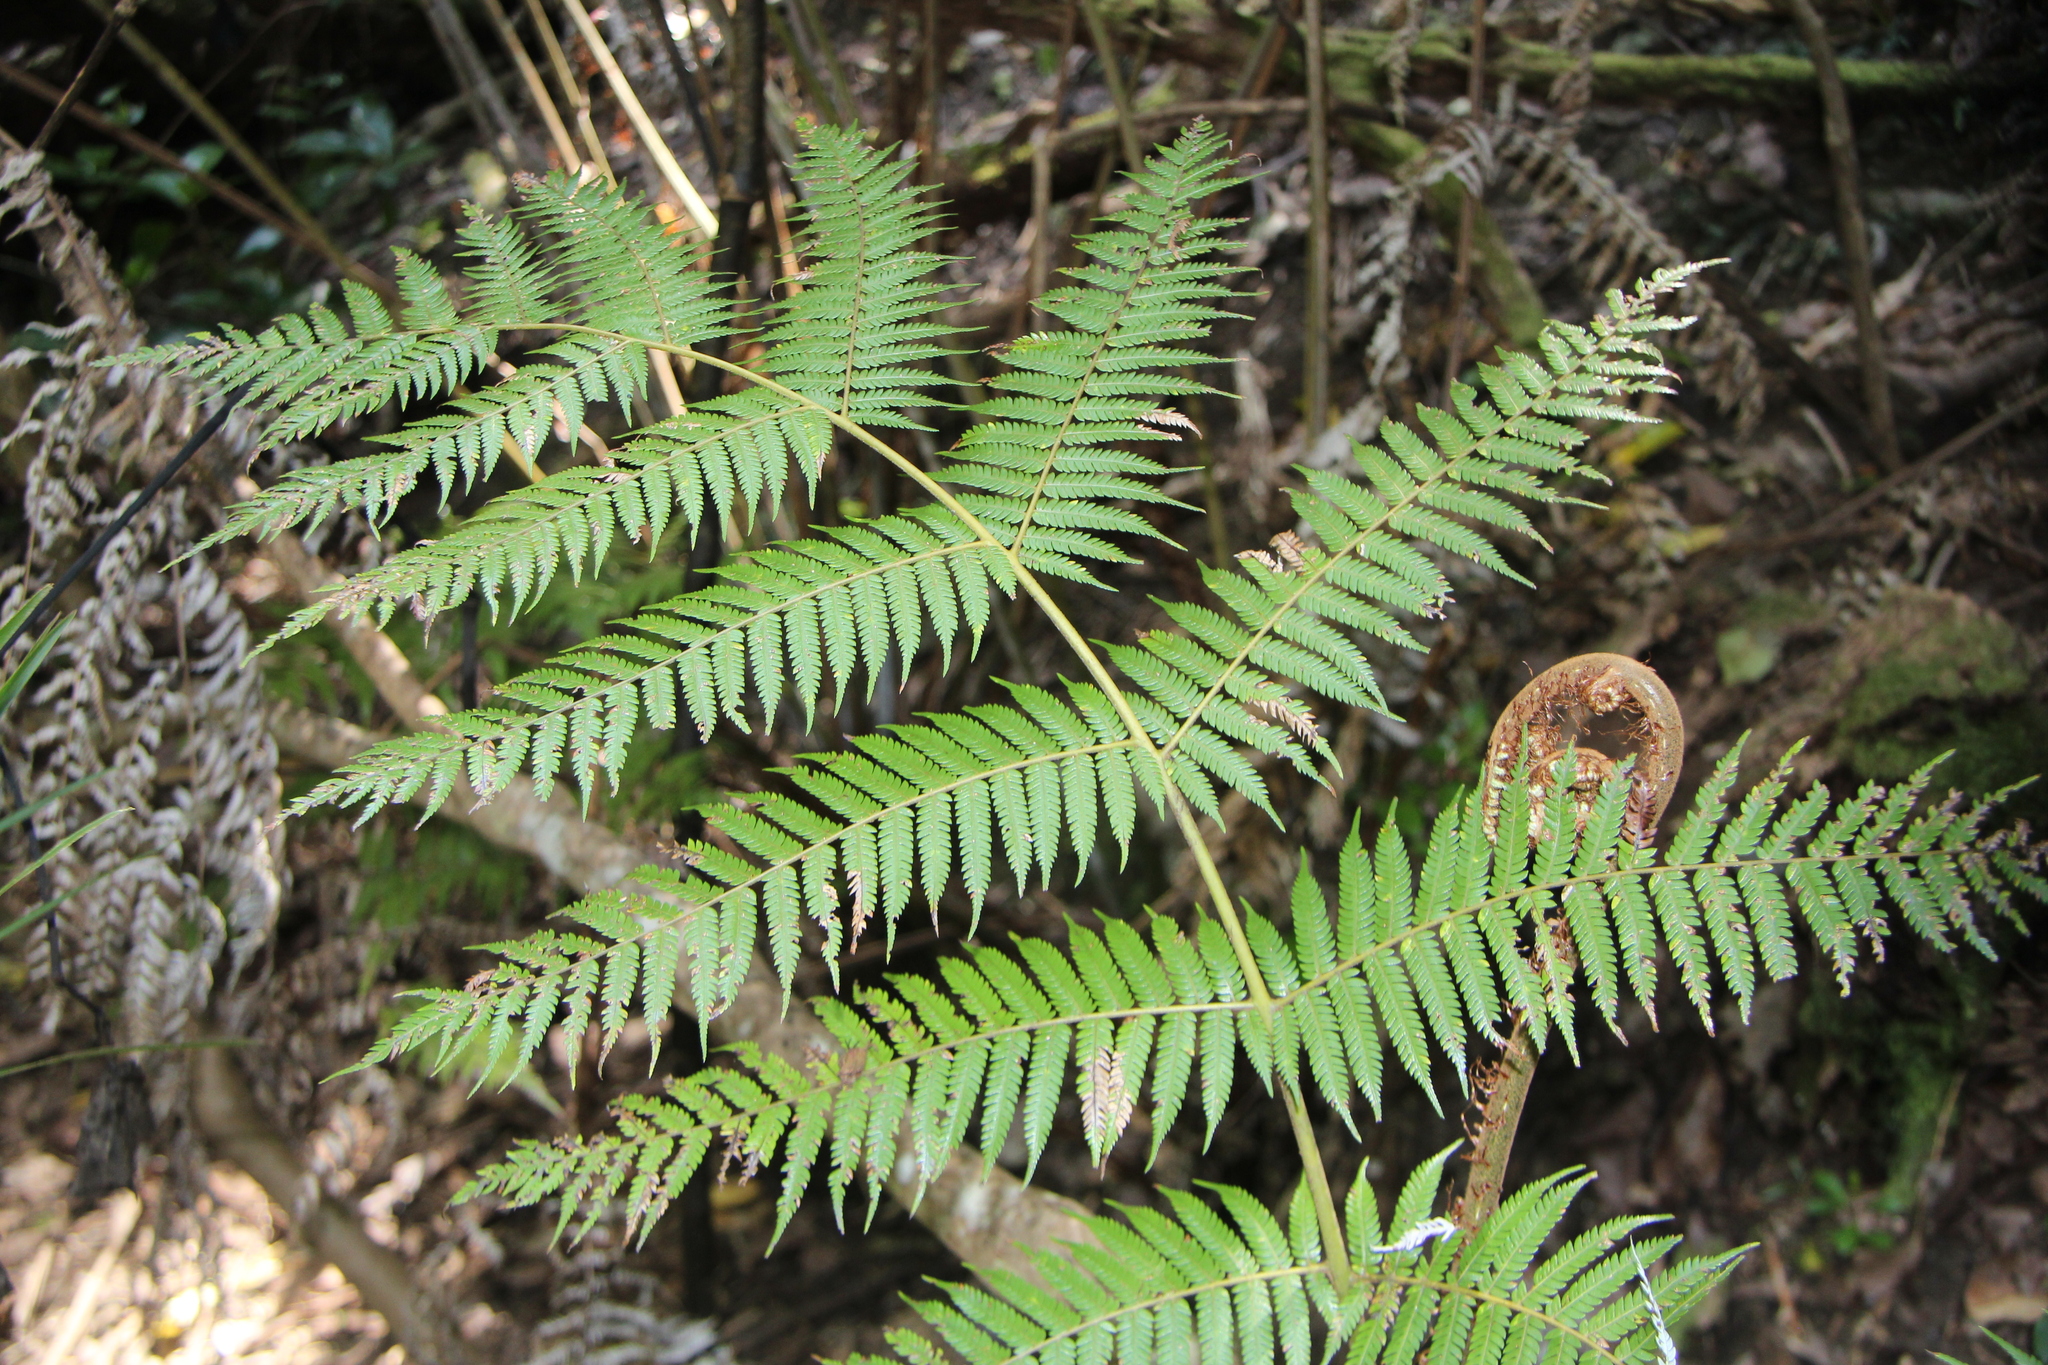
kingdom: Plantae
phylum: Tracheophyta
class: Polypodiopsida
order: Cyatheales
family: Cyatheaceae
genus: Alsophila
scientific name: Alsophila dealbata
